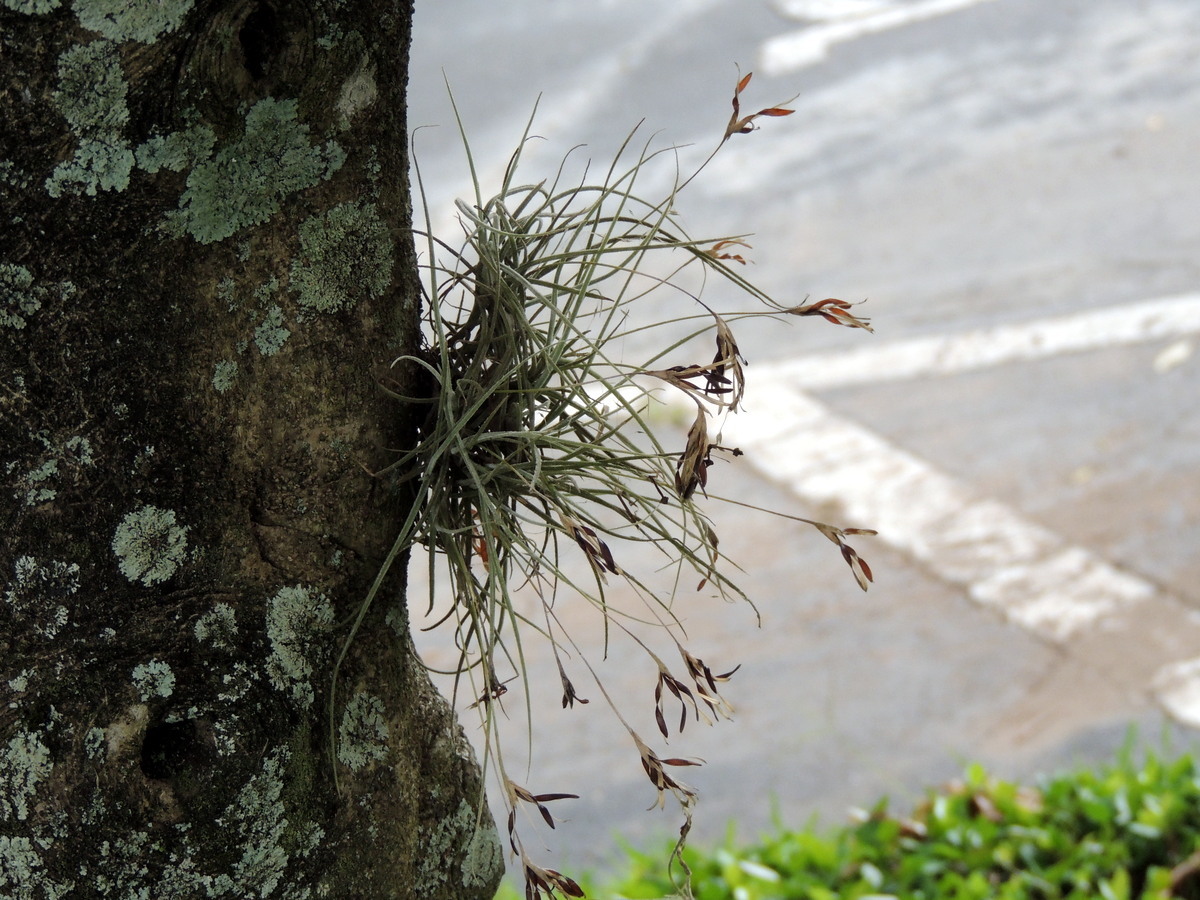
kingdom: Plantae
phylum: Tracheophyta
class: Liliopsida
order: Poales
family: Bromeliaceae
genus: Tillandsia
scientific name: Tillandsia recurvata
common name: Small ballmoss
